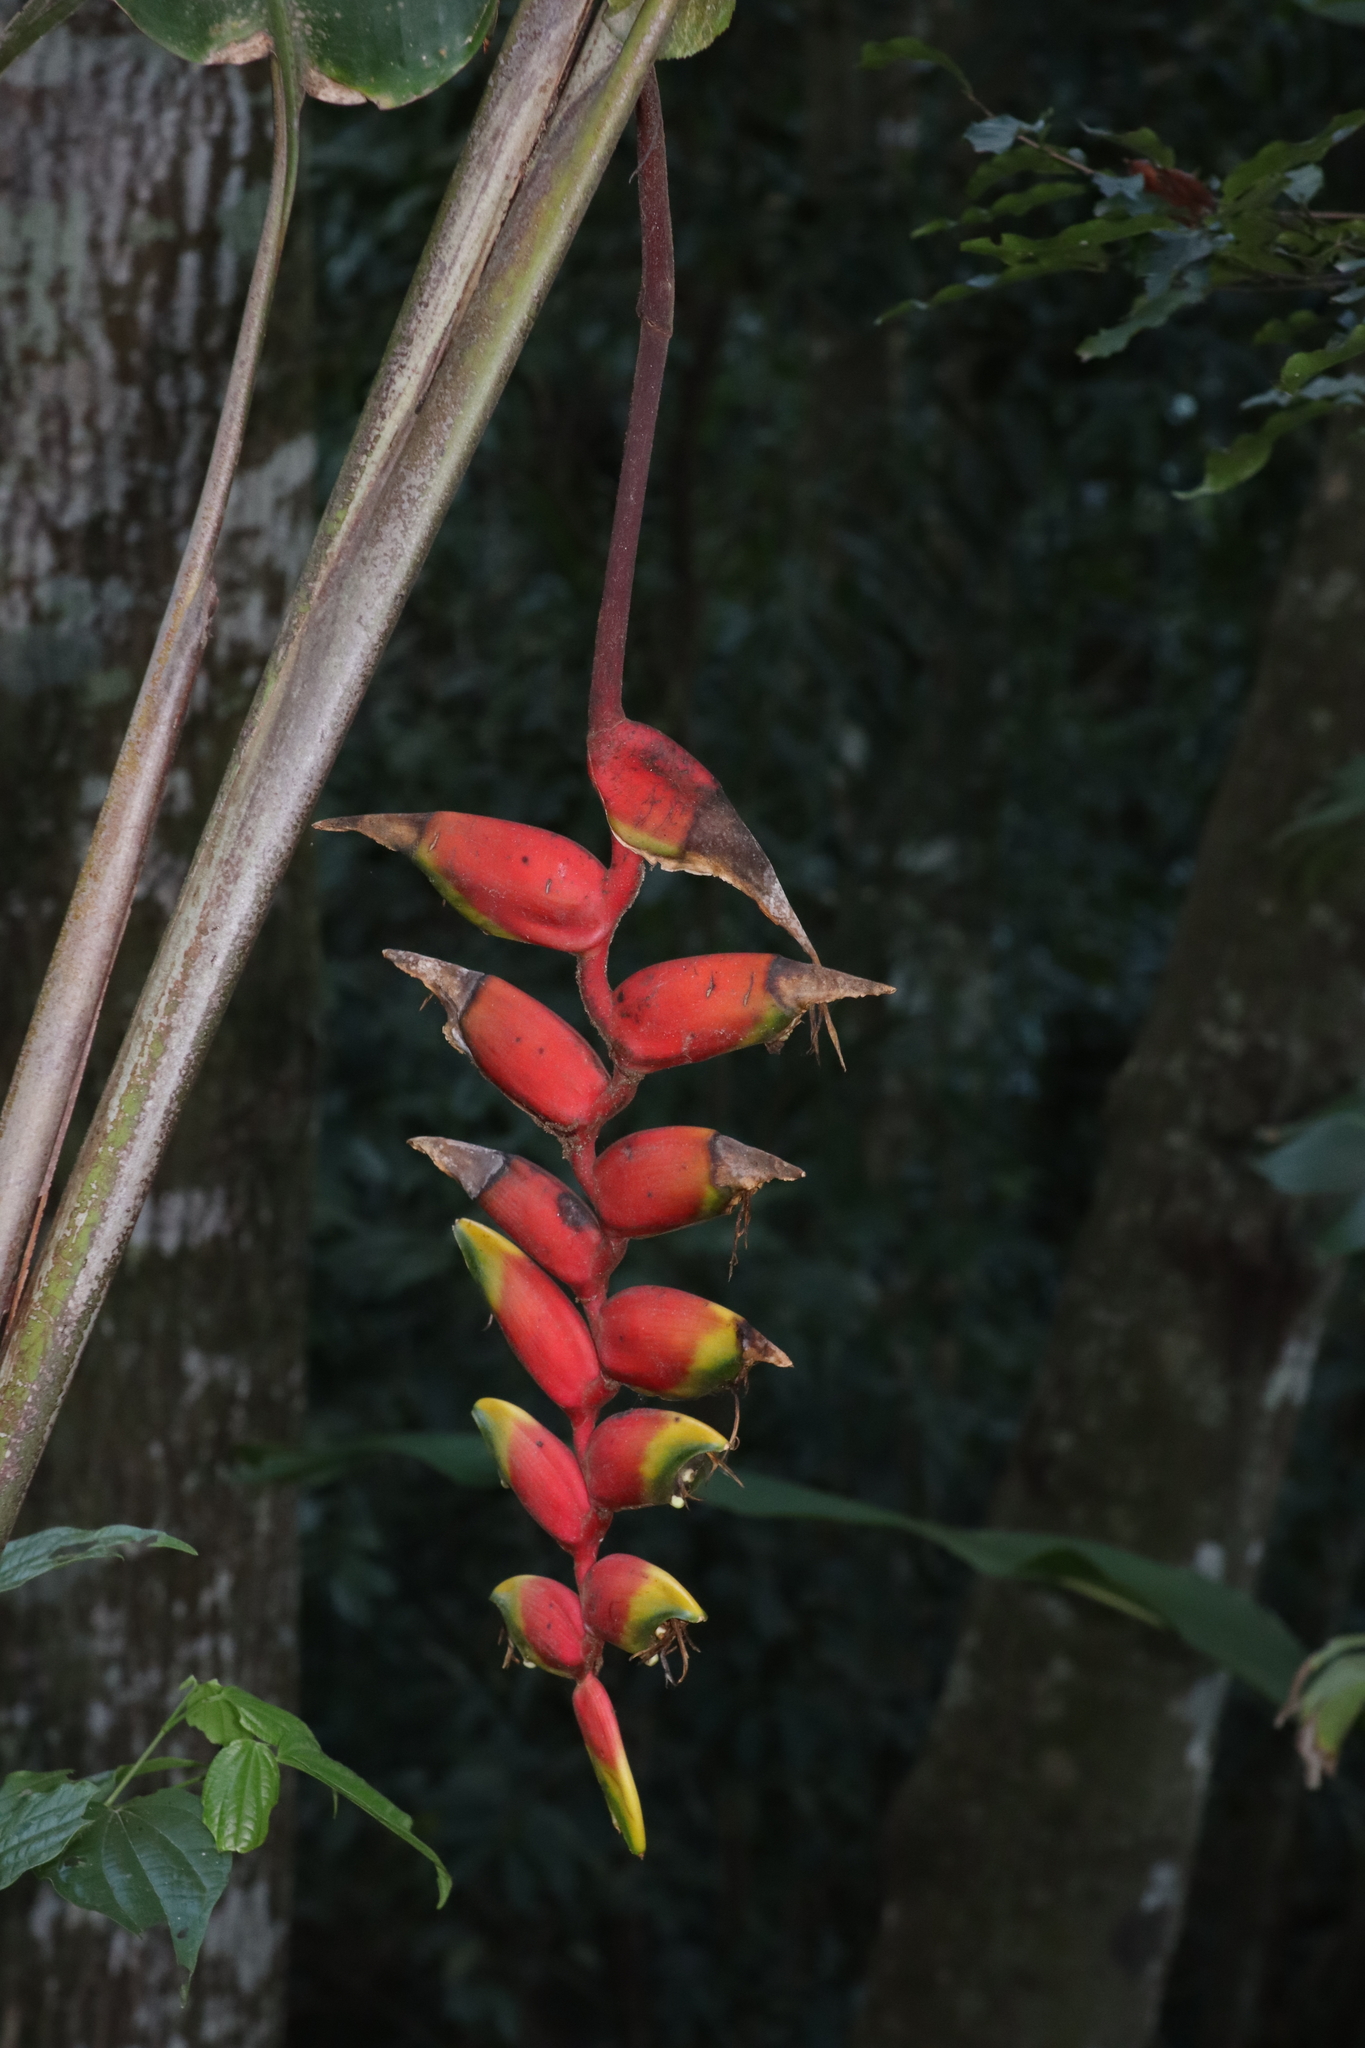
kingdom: Plantae
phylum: Tracheophyta
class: Liliopsida
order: Zingiberales
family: Heliconiaceae
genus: Heliconia
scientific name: Heliconia rostrata
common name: False bird of paradise
